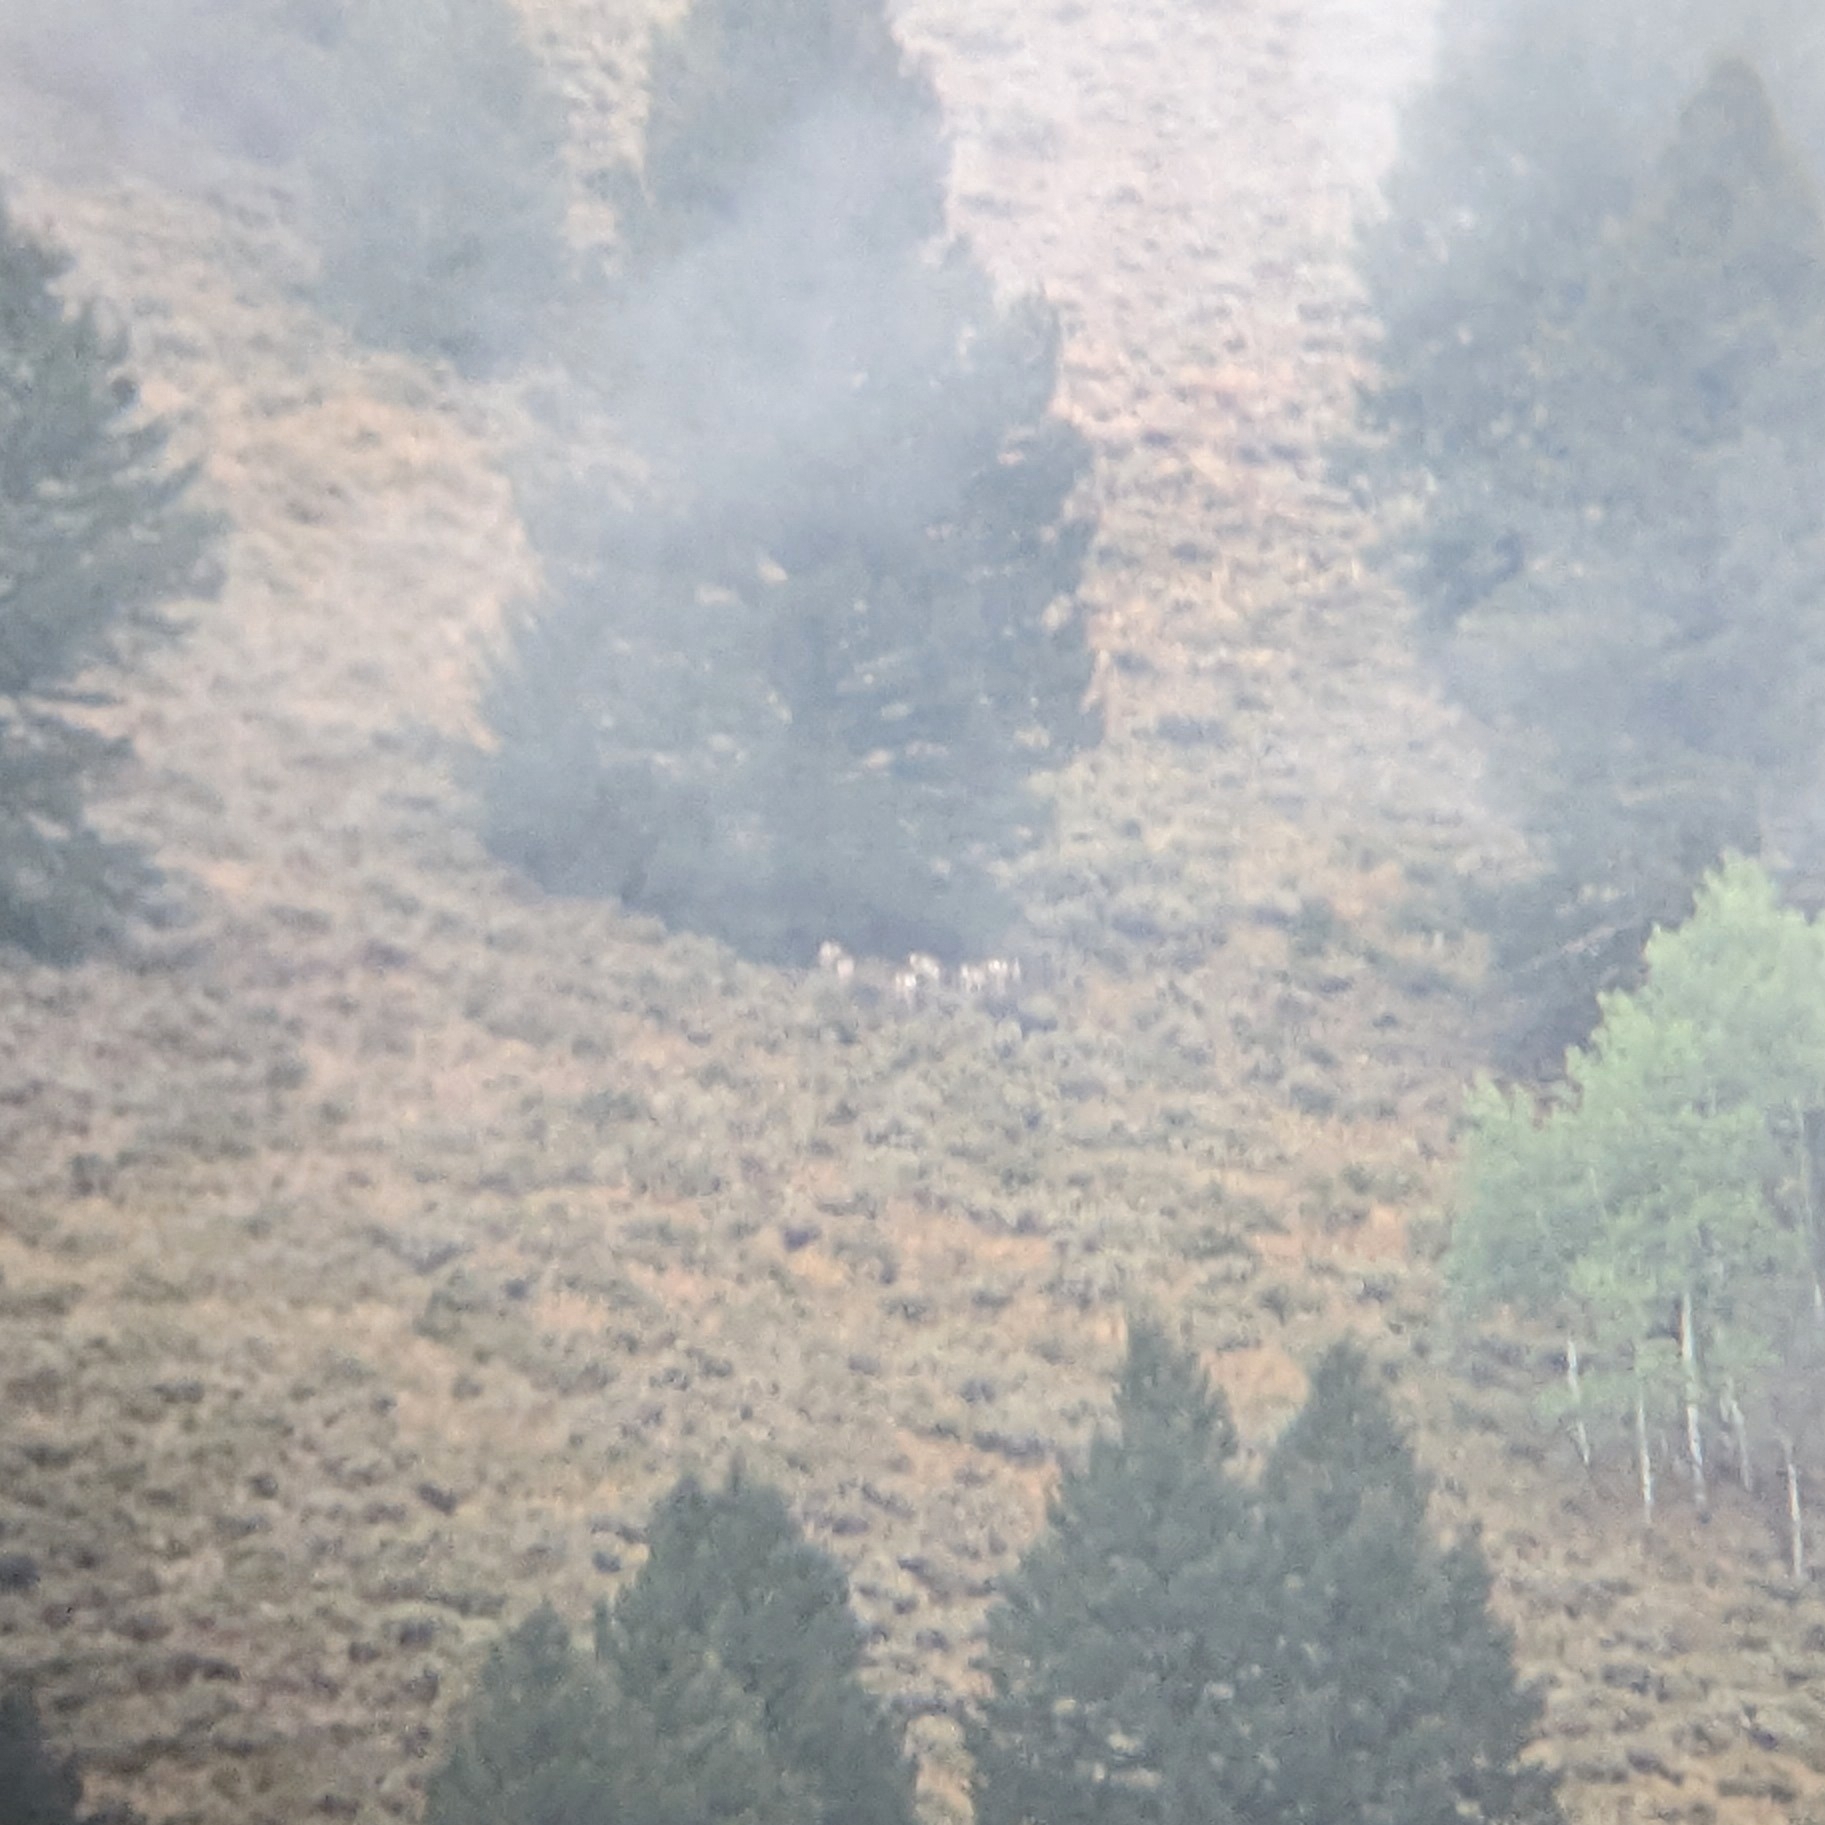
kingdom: Animalia
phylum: Chordata
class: Mammalia
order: Artiodactyla
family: Antilocapridae
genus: Antilocapra
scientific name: Antilocapra americana
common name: Pronghorn
